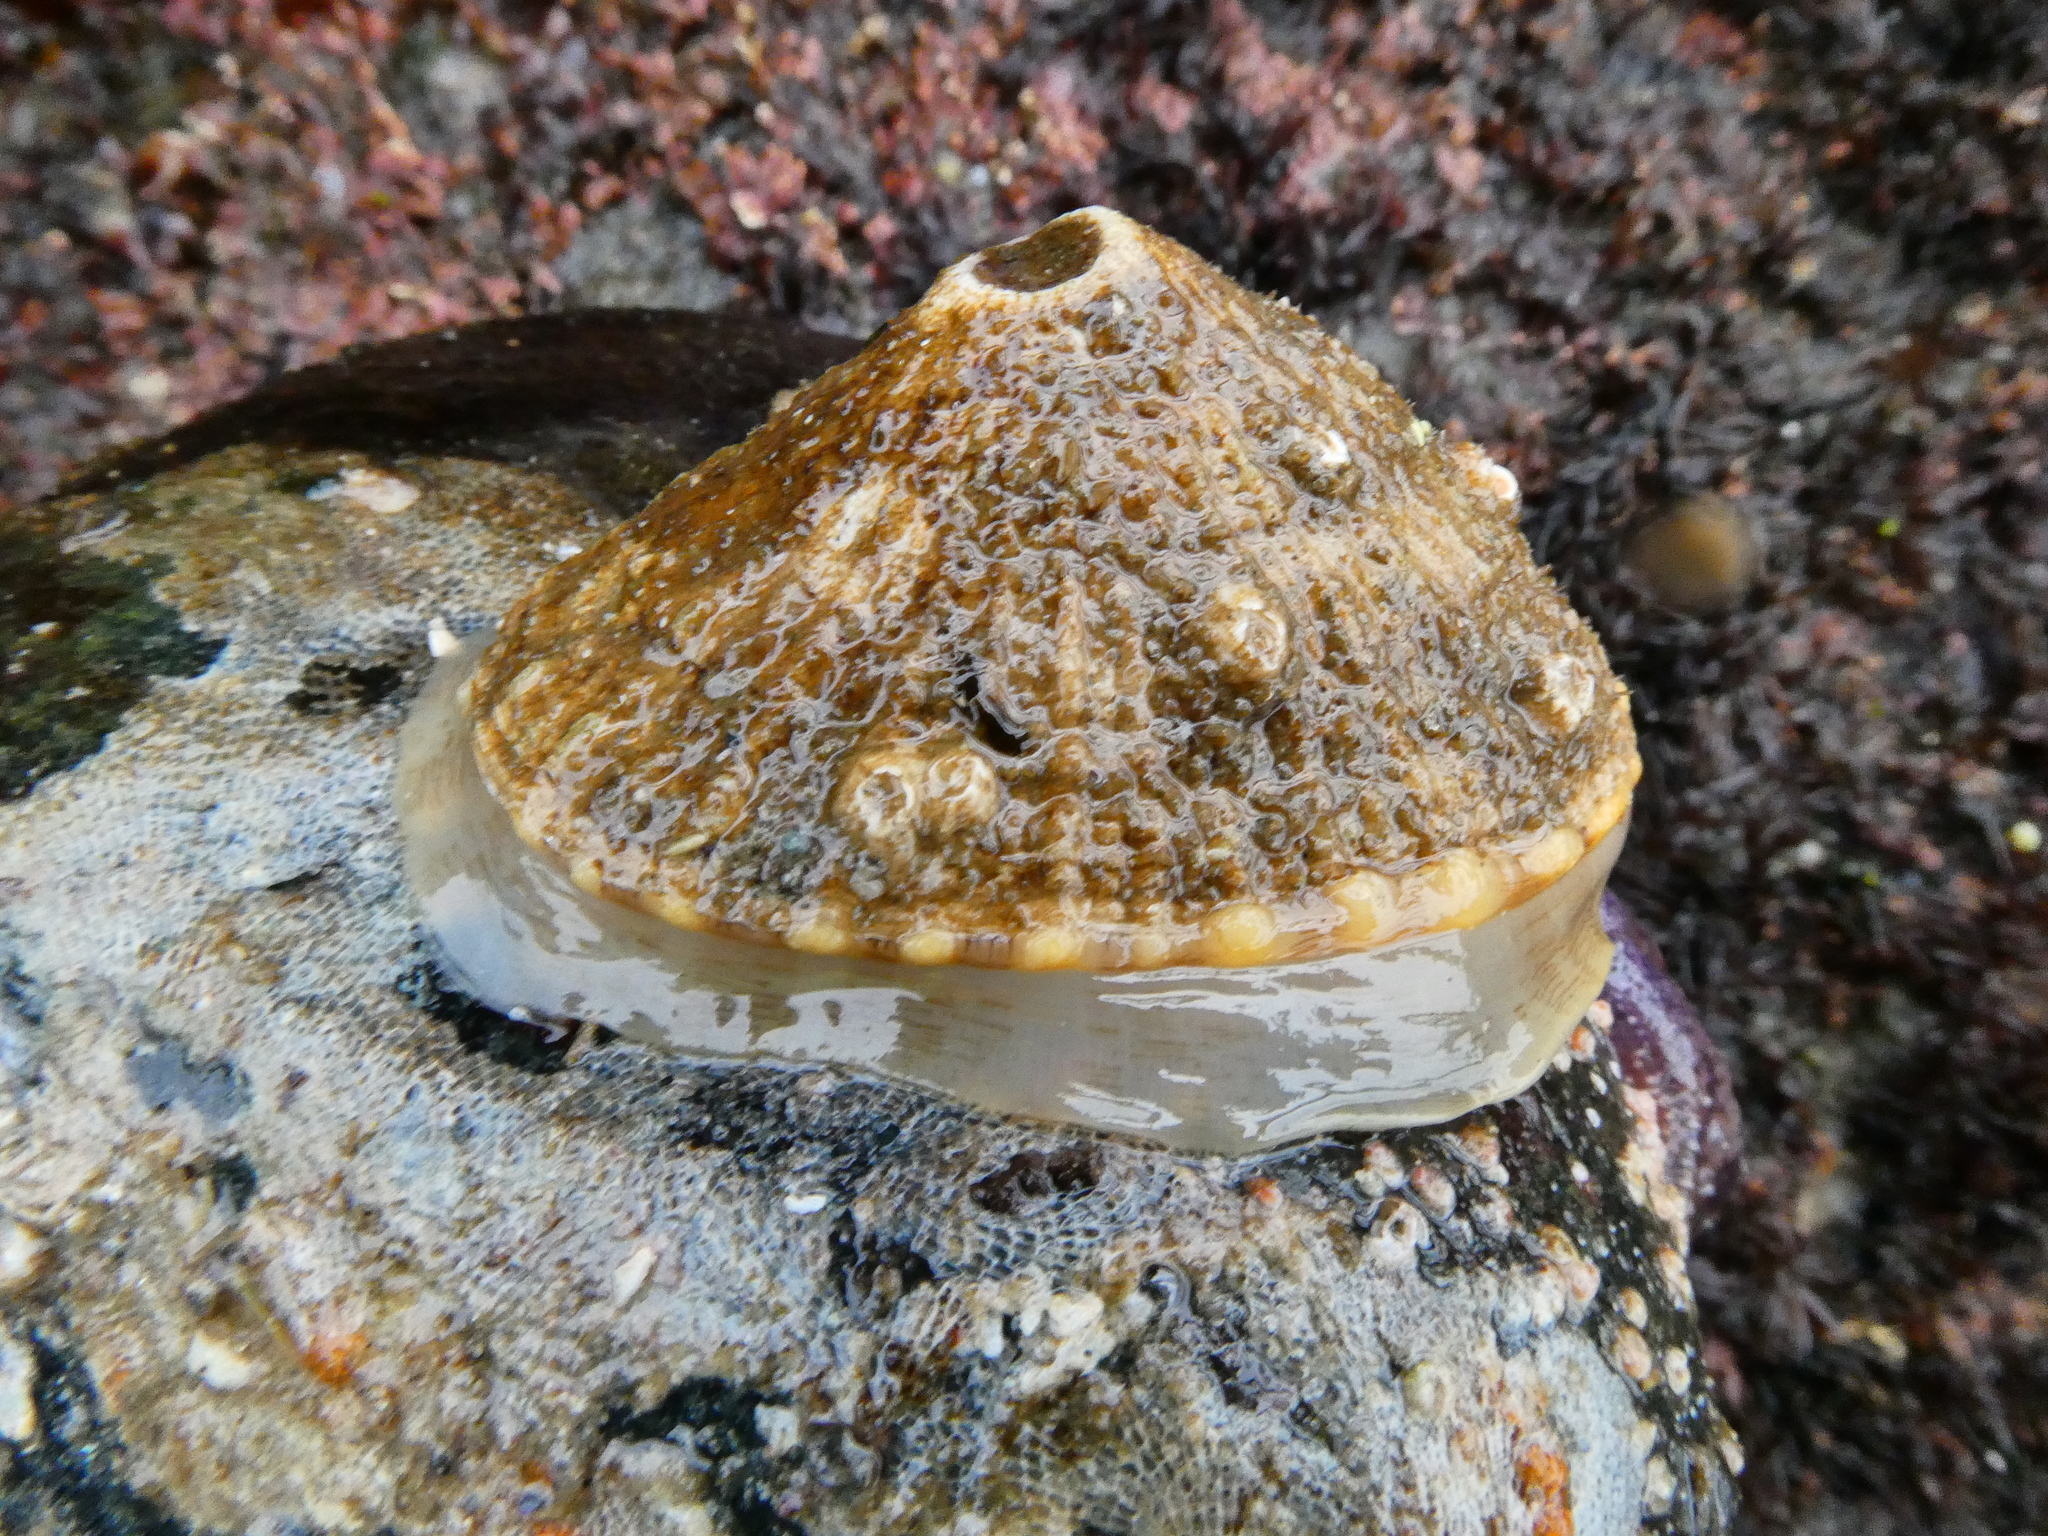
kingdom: Animalia
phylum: Mollusca
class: Gastropoda
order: Lepetellida
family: Fissurellidae
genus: Diodora
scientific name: Diodora aspera
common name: Rough keyhole limpet
